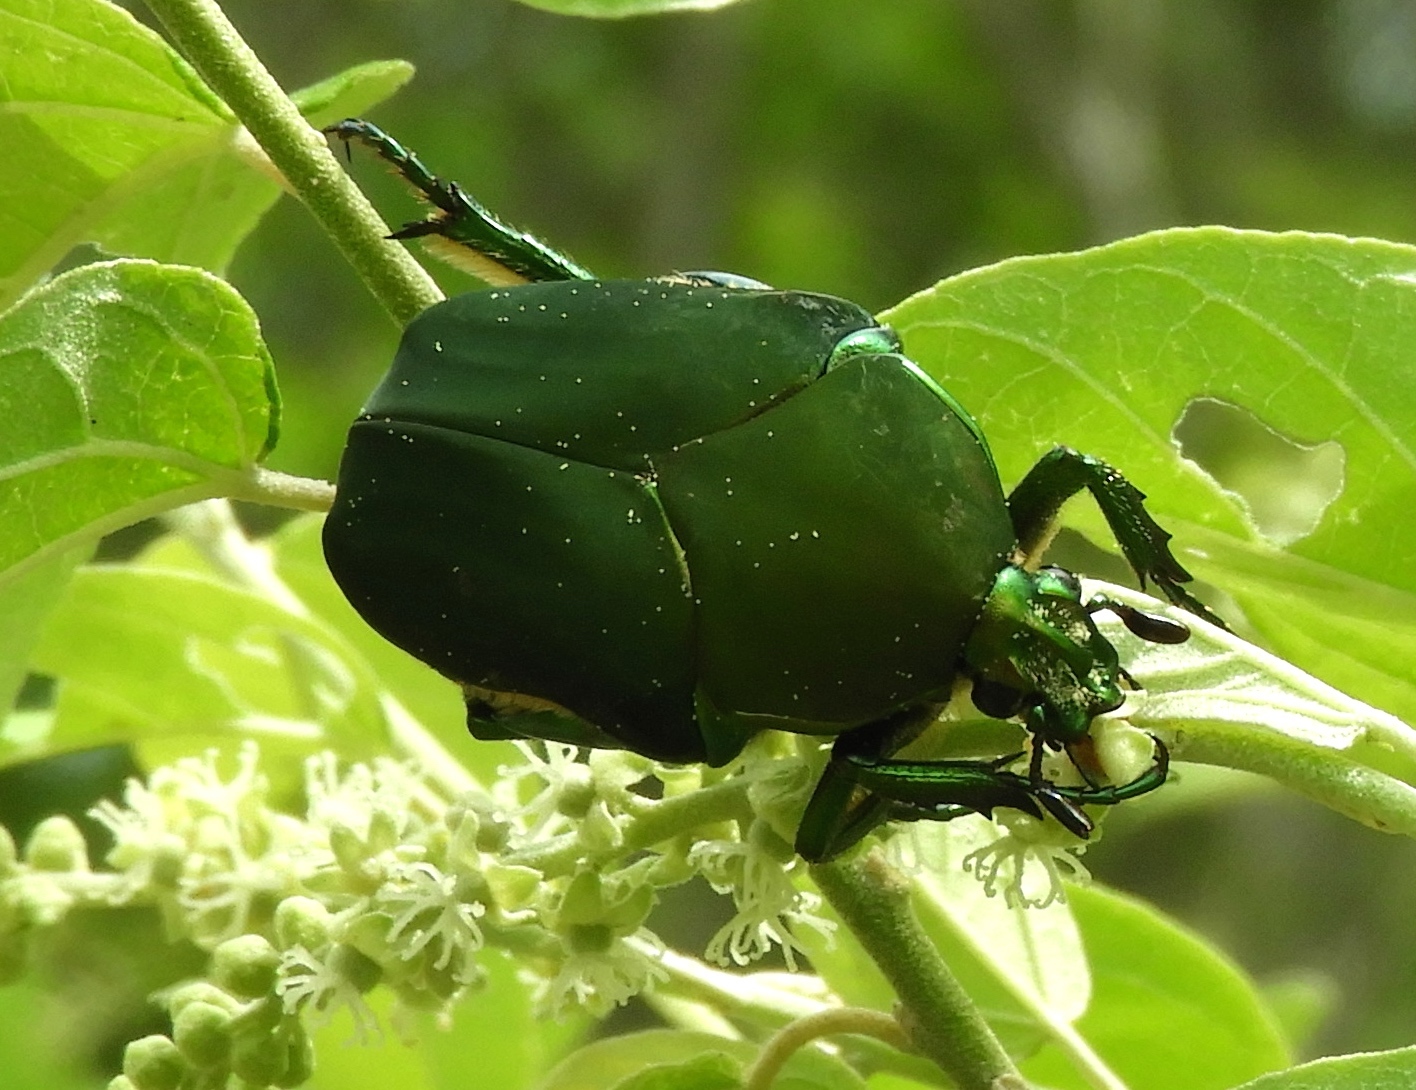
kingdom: Animalia
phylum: Arthropoda
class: Insecta
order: Coleoptera
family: Scarabaeidae
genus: Cotinis
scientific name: Cotinis
